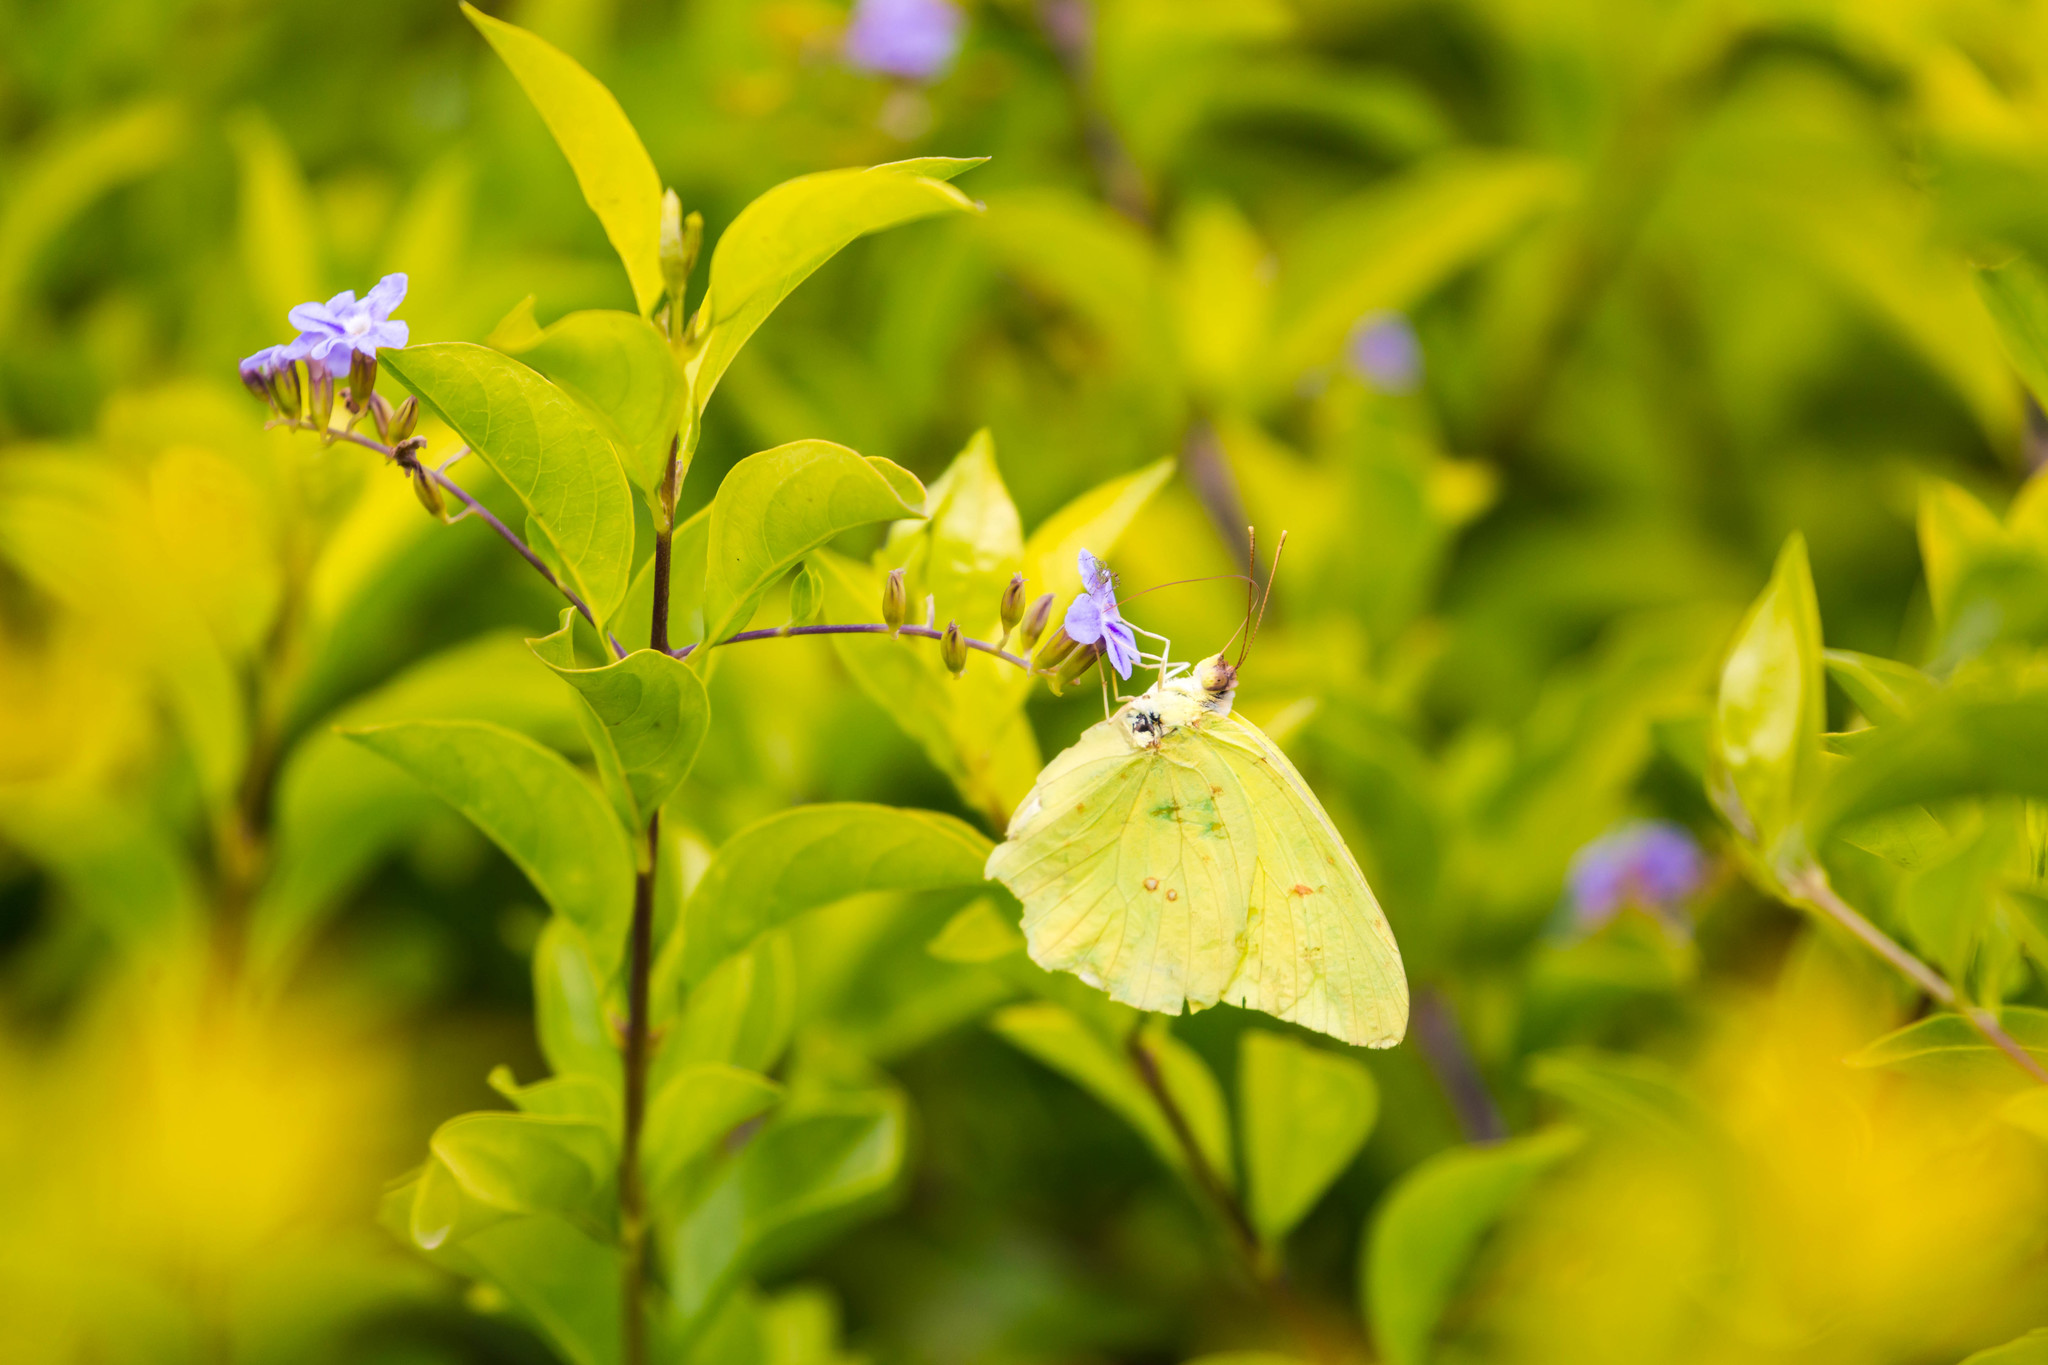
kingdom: Animalia
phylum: Arthropoda
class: Insecta
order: Lepidoptera
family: Pieridae
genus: Phoebis
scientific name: Phoebis sennae
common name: Cloudless sulphur
